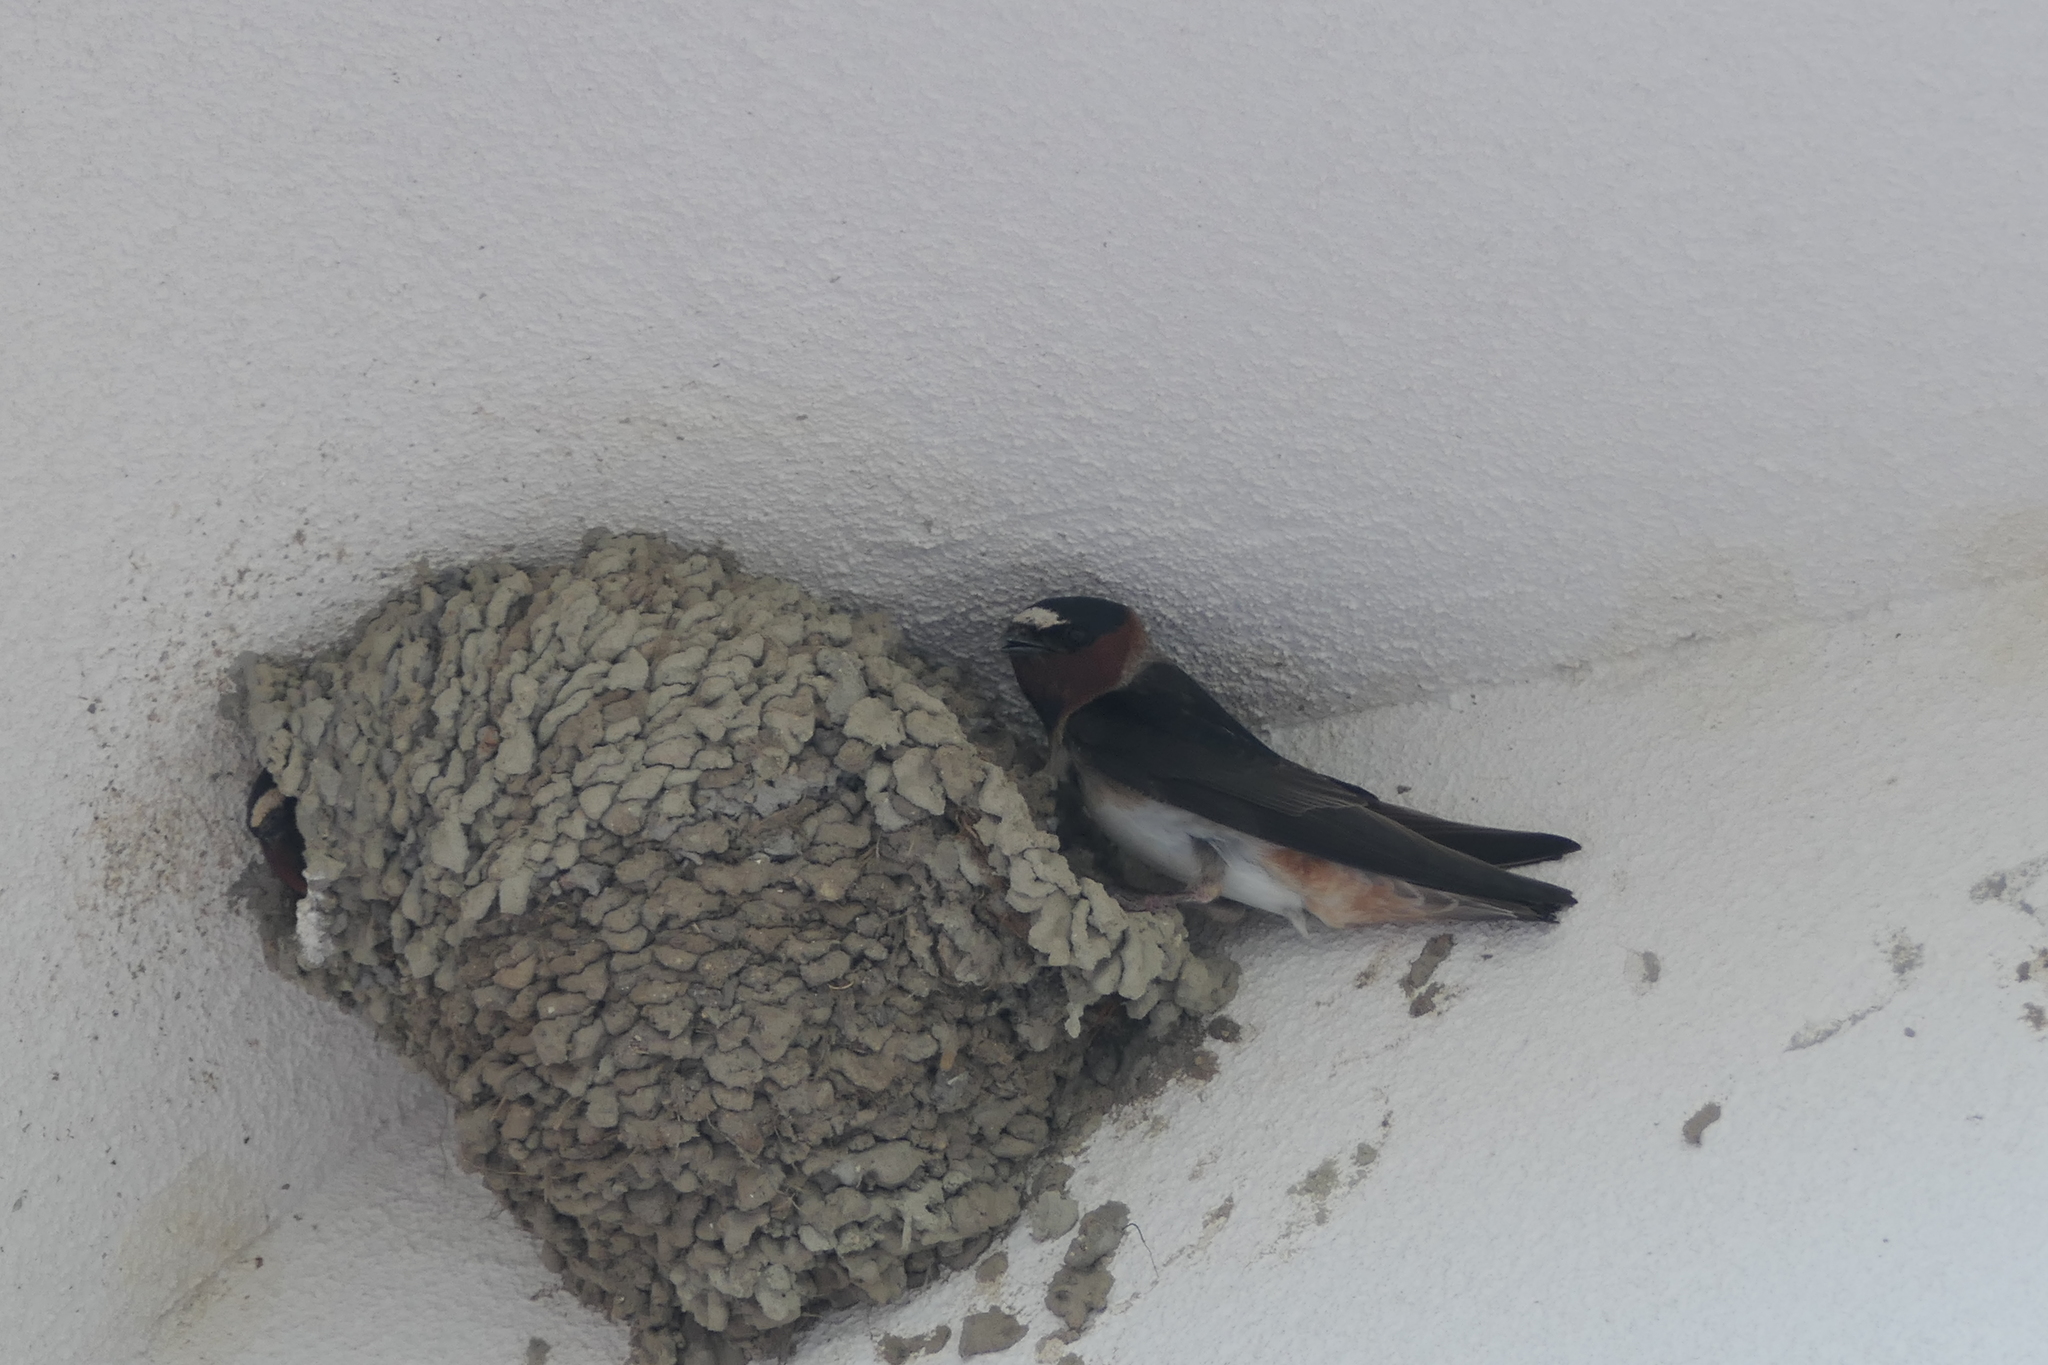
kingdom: Animalia
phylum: Chordata
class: Aves
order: Passeriformes
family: Hirundinidae
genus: Petrochelidon
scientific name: Petrochelidon pyrrhonota
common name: American cliff swallow
